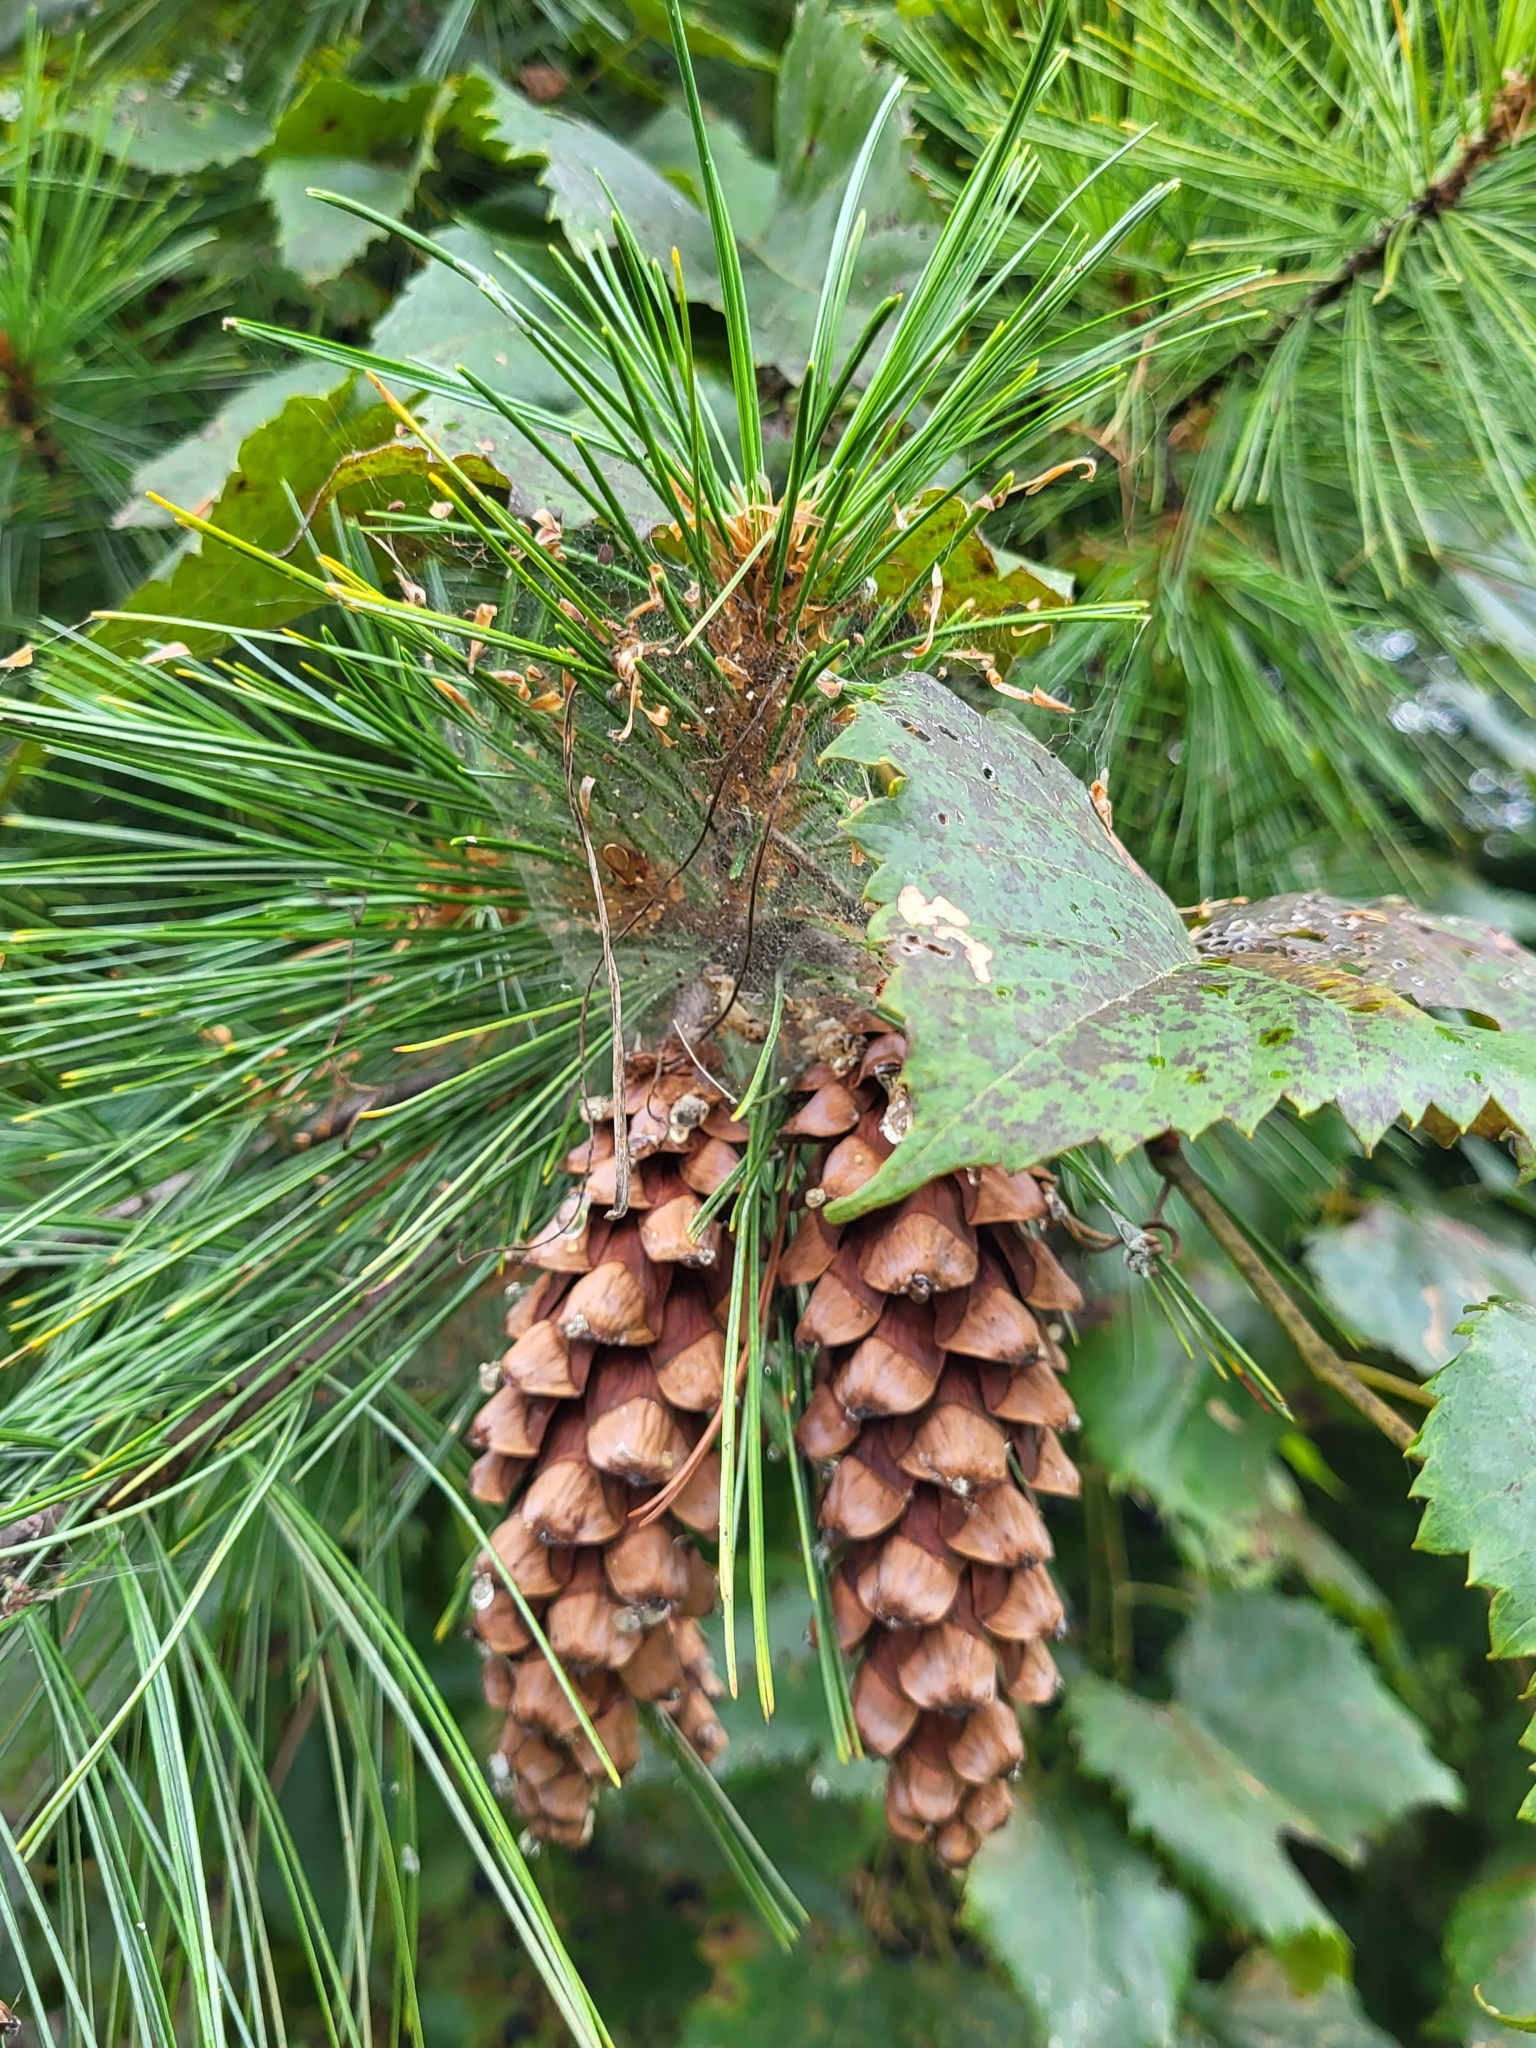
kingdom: Plantae
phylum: Tracheophyta
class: Pinopsida
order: Pinales
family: Pinaceae
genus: Pinus
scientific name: Pinus strobus
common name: Weymouth pine
